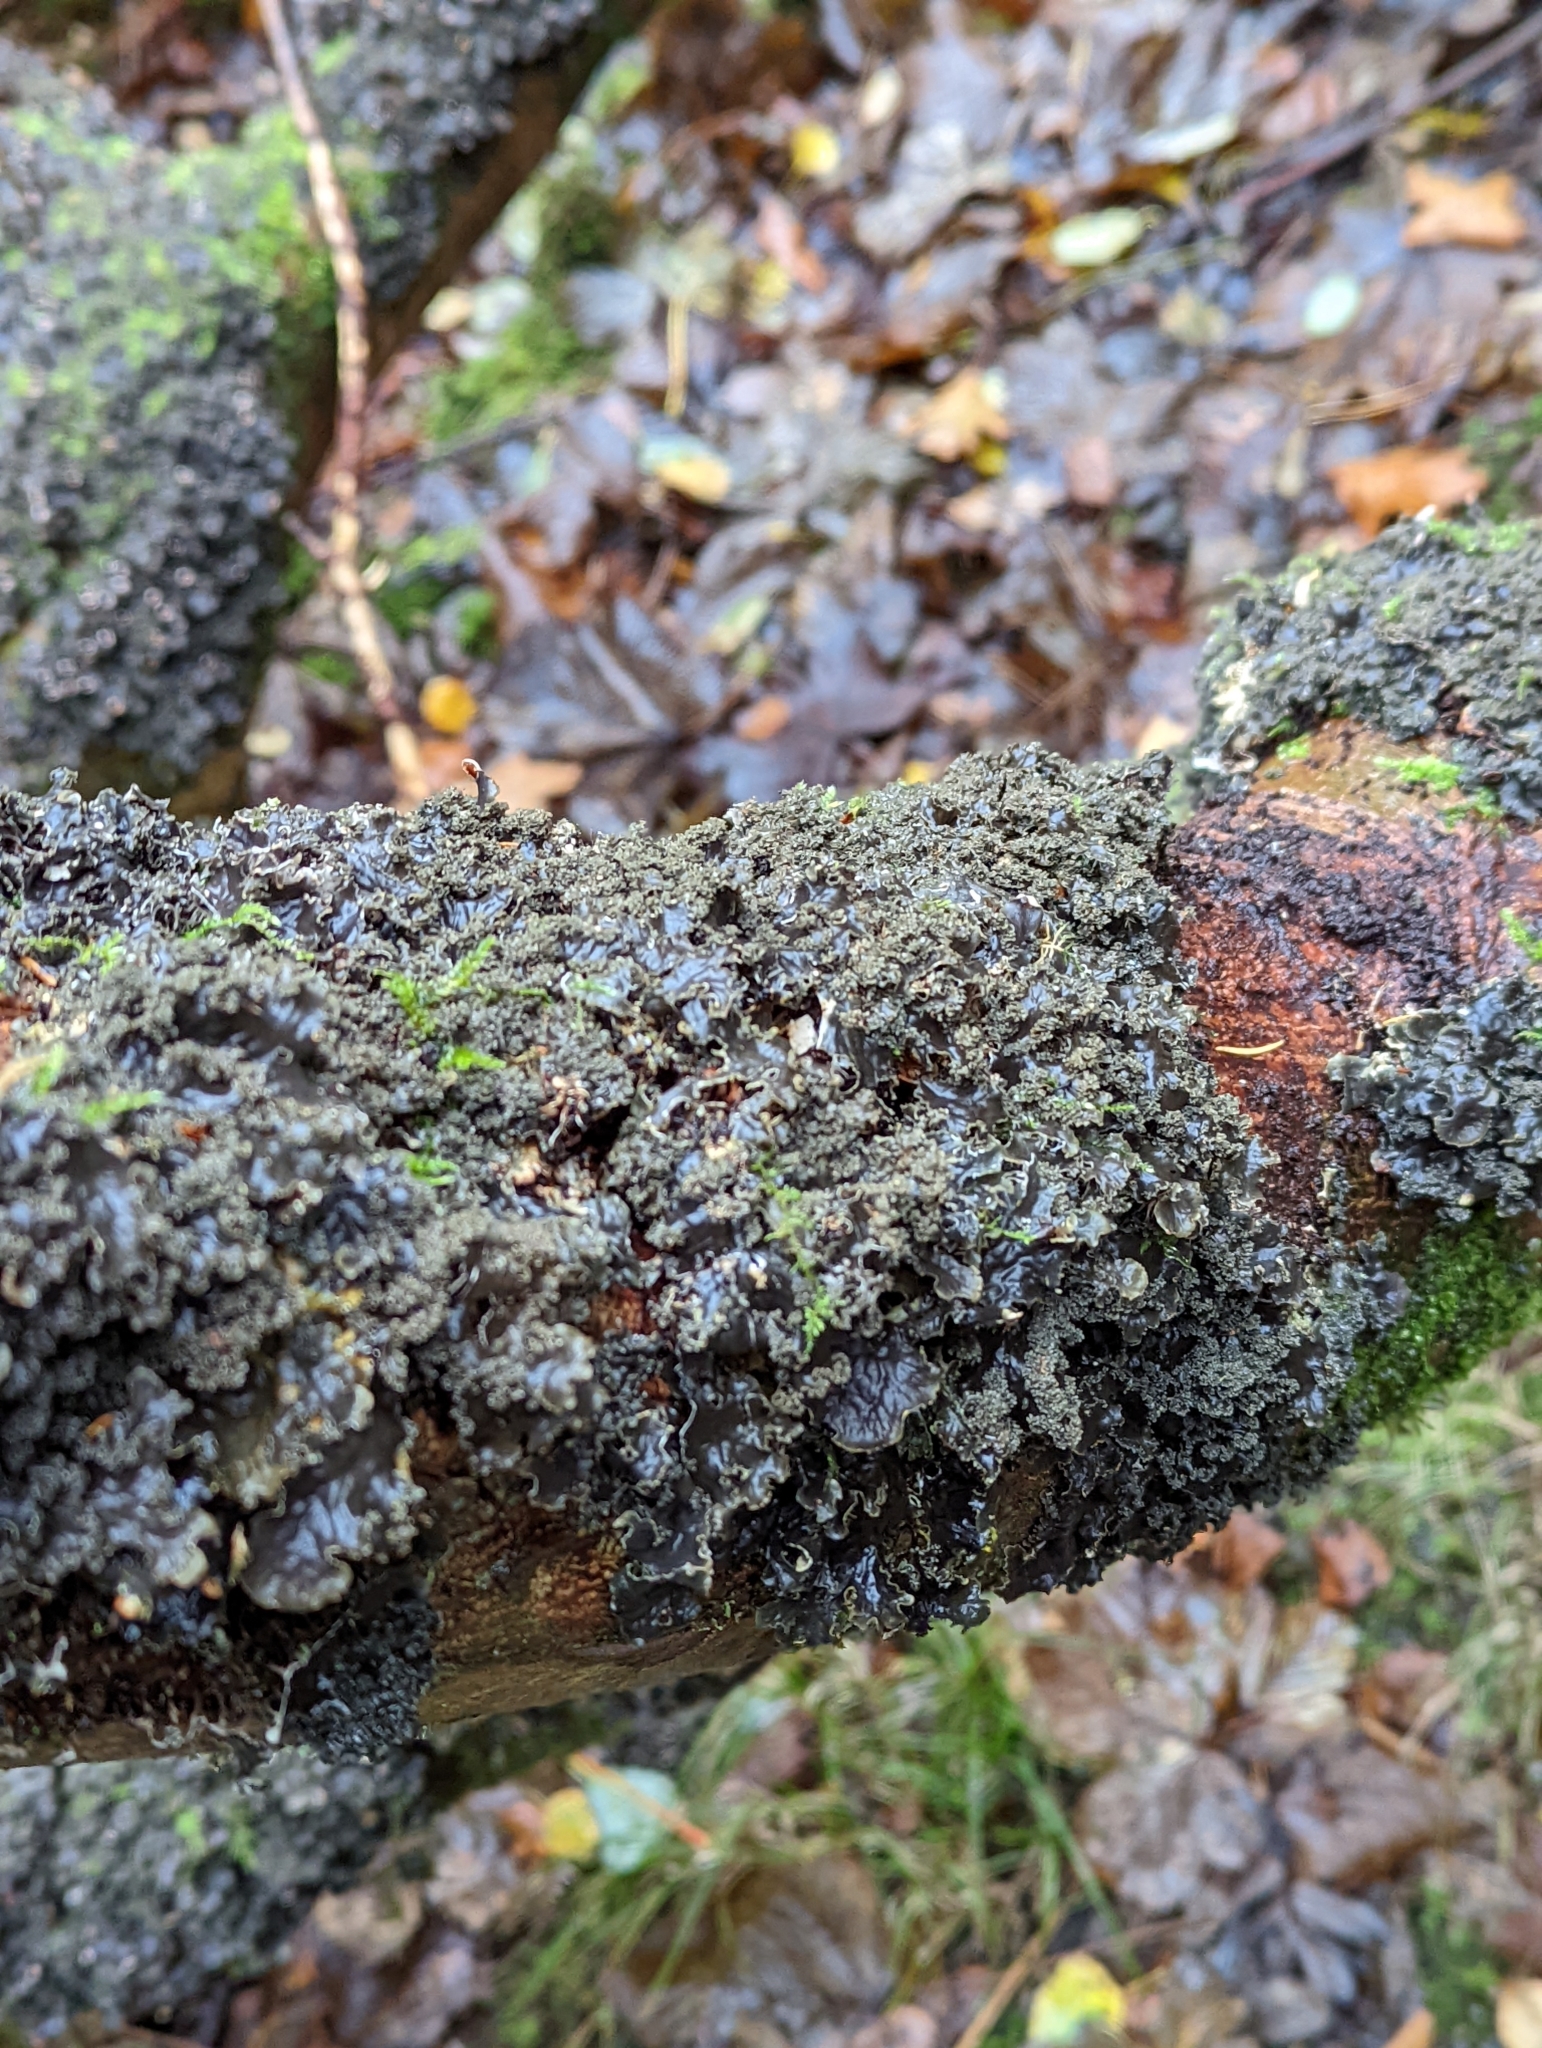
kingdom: Fungi
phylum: Ascomycota
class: Lecanoromycetes
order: Peltigerales
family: Peltigeraceae
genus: Peltigera
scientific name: Peltigera praetextata
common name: Scaly dog-lichen
